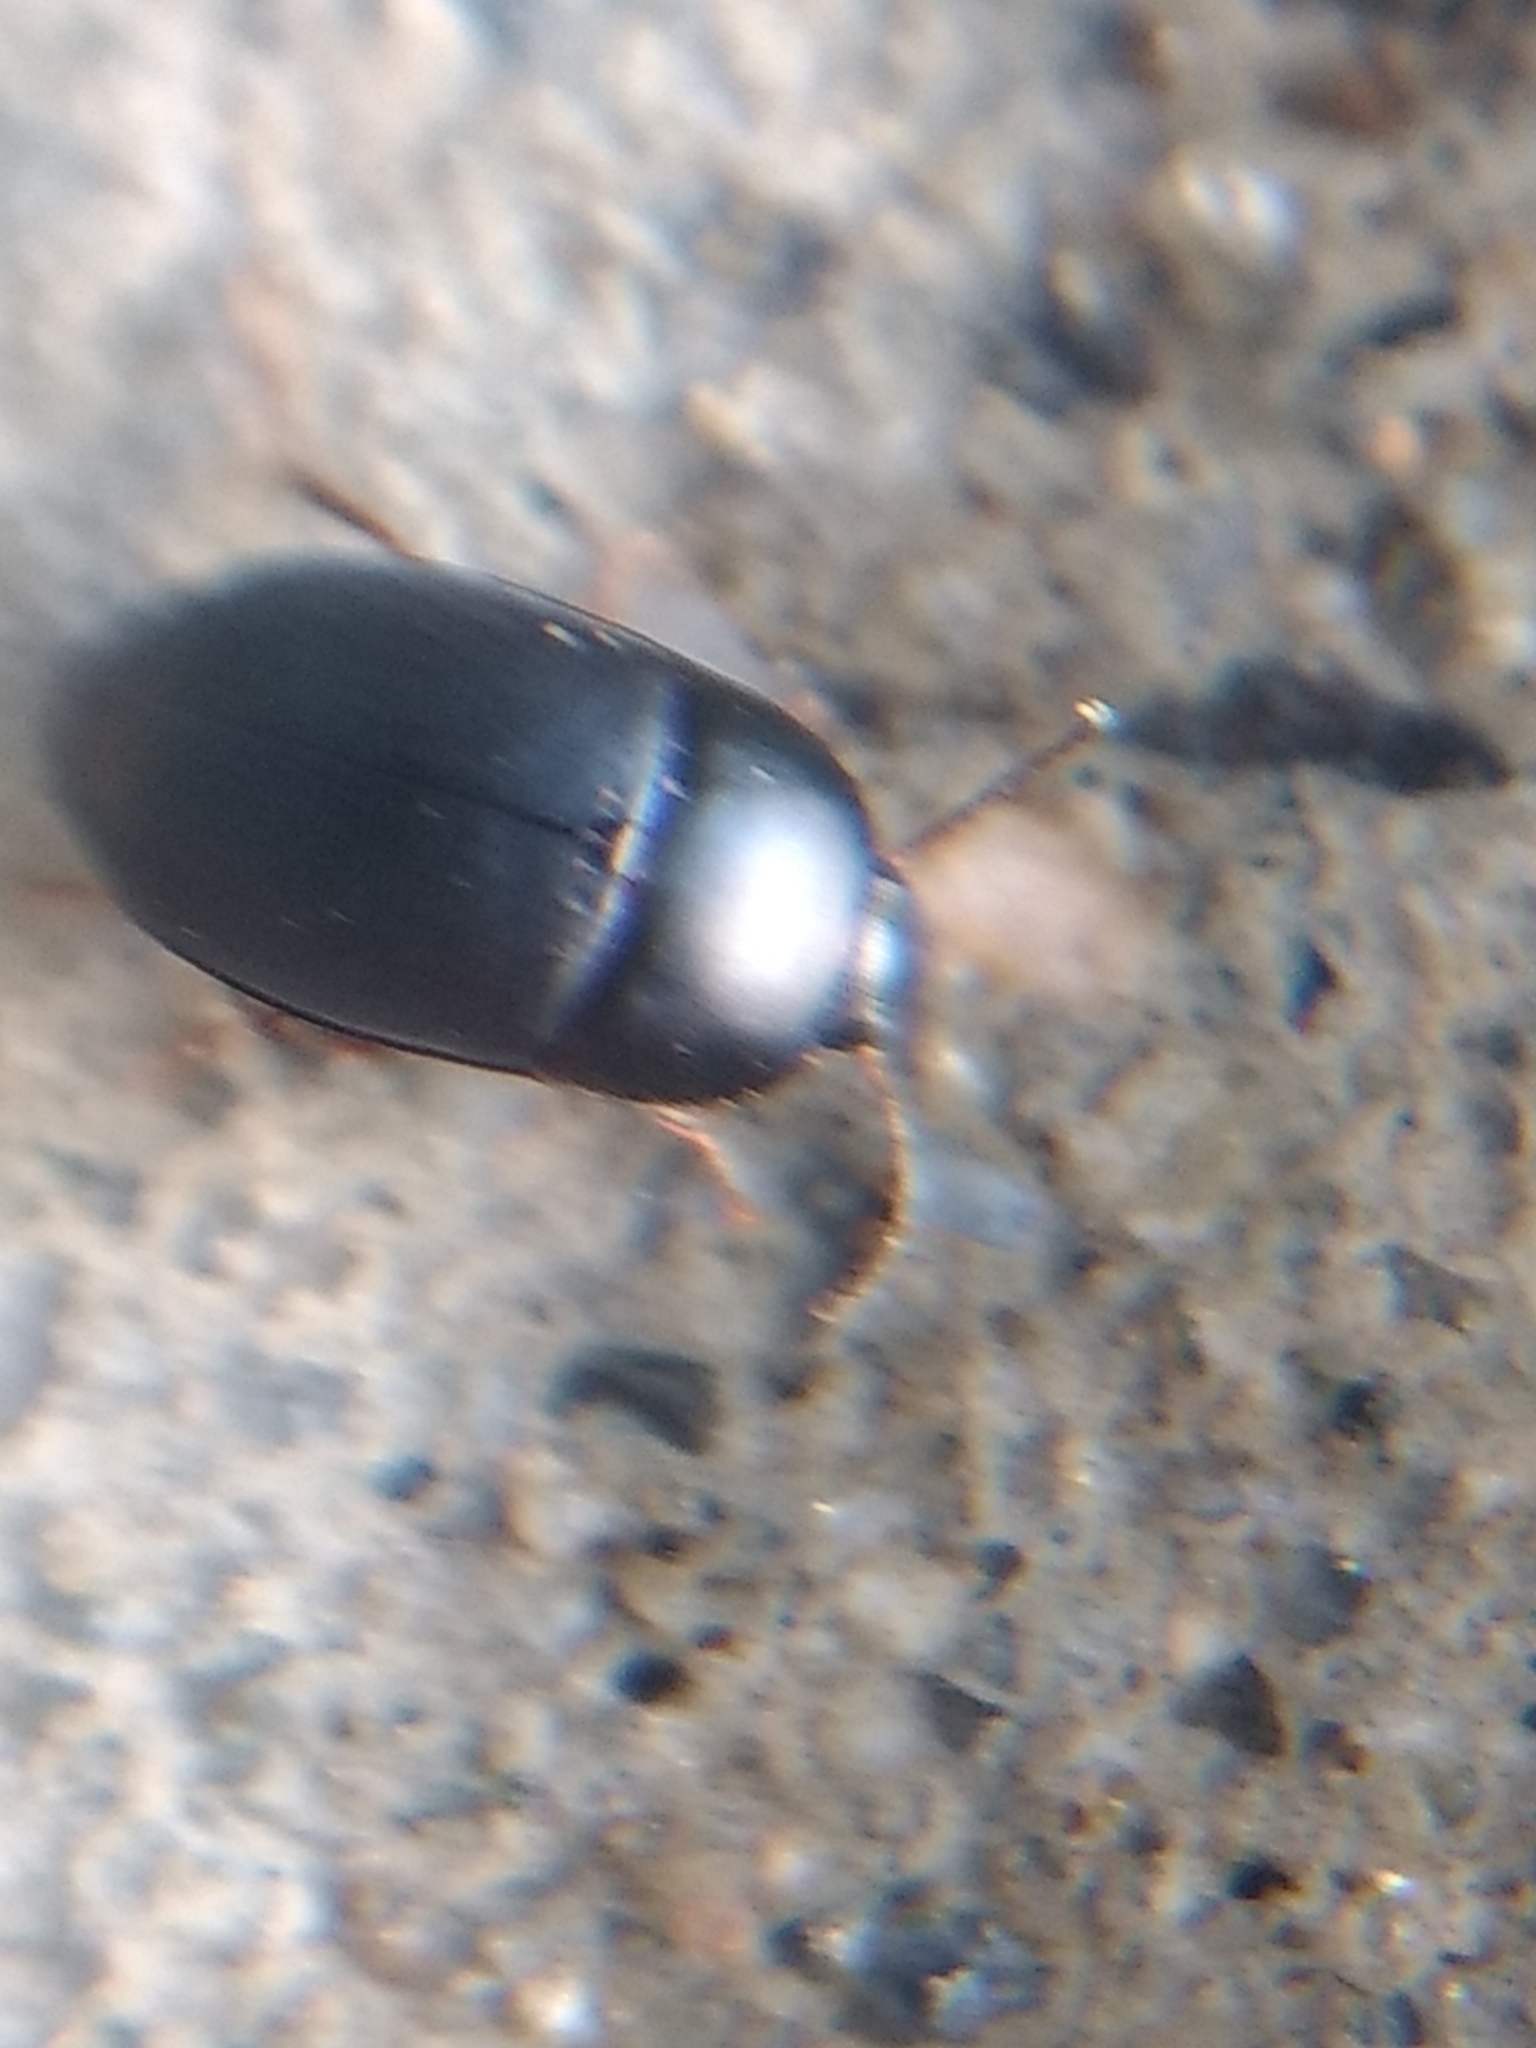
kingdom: Animalia
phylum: Arthropoda
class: Insecta
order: Coleoptera
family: Tenebrionidae
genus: Gondwanocrypticus
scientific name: Gondwanocrypticus platensis
